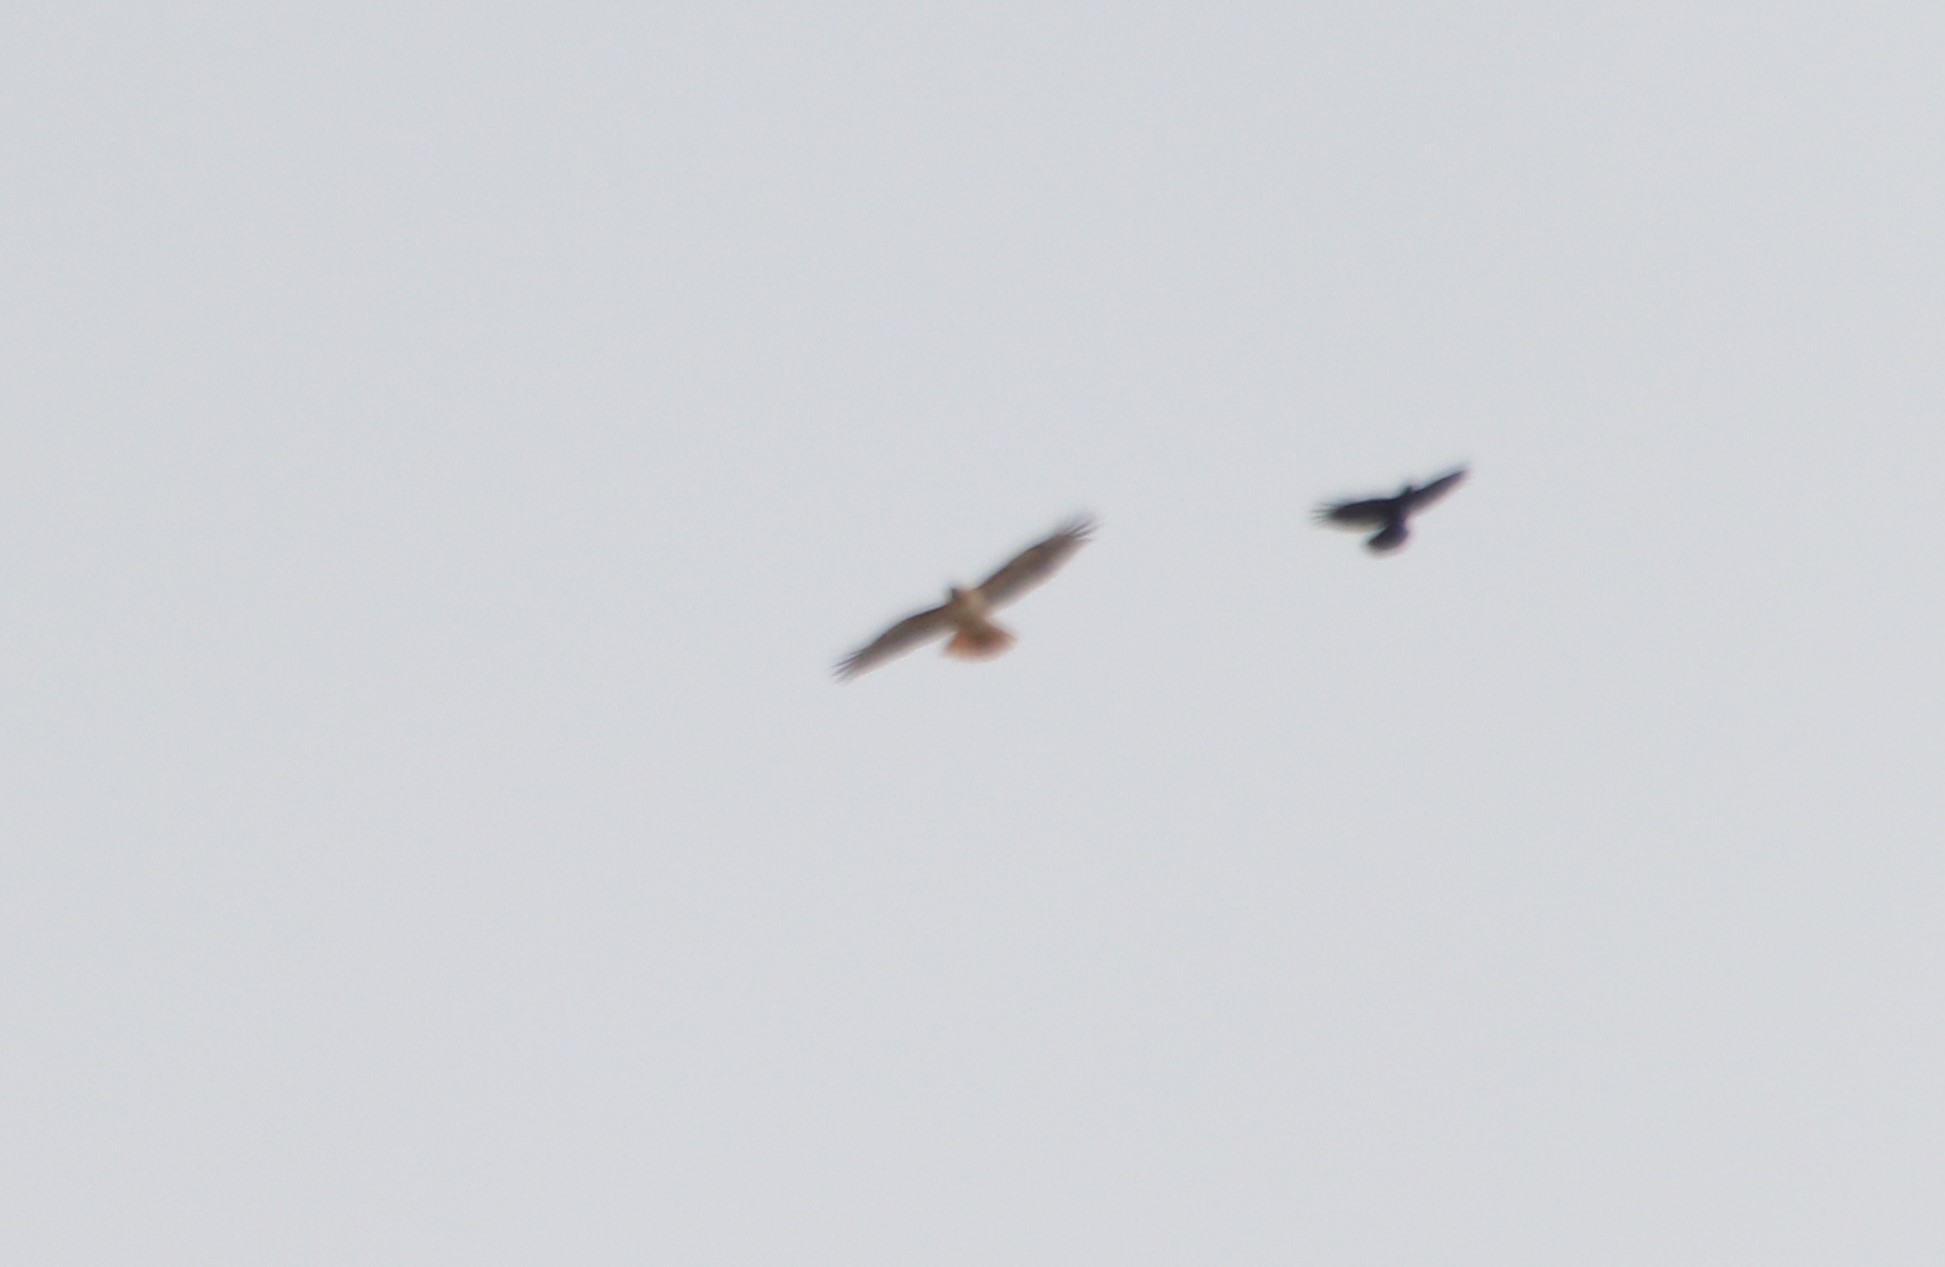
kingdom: Animalia
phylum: Chordata
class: Aves
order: Accipitriformes
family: Accipitridae
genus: Buteo
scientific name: Buteo jamaicensis
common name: Red-tailed hawk
